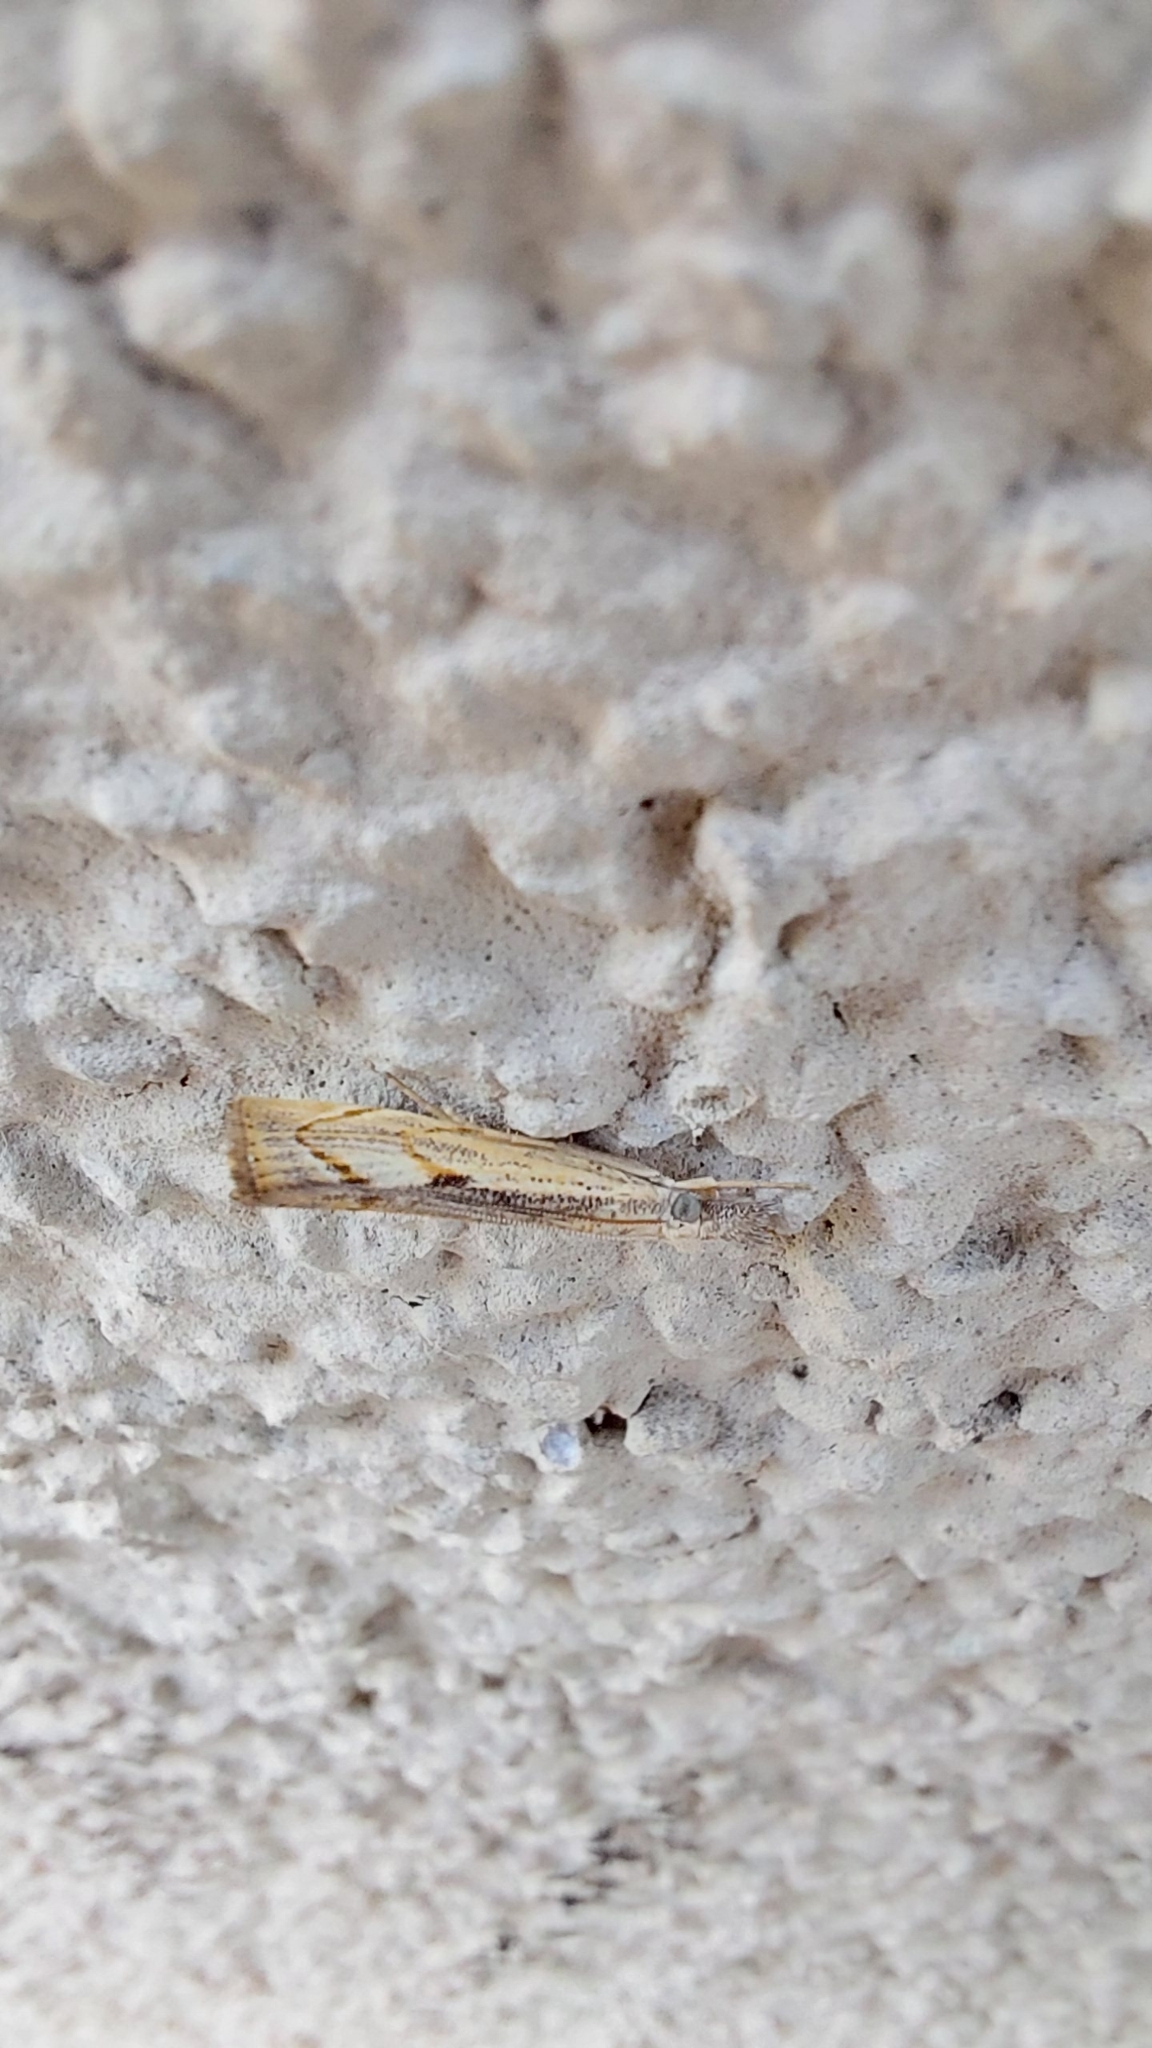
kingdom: Animalia
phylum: Arthropoda
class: Insecta
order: Lepidoptera
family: Crambidae
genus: Agriphila
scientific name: Agriphila geniculea
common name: Elbow-stripe grass-veneer
